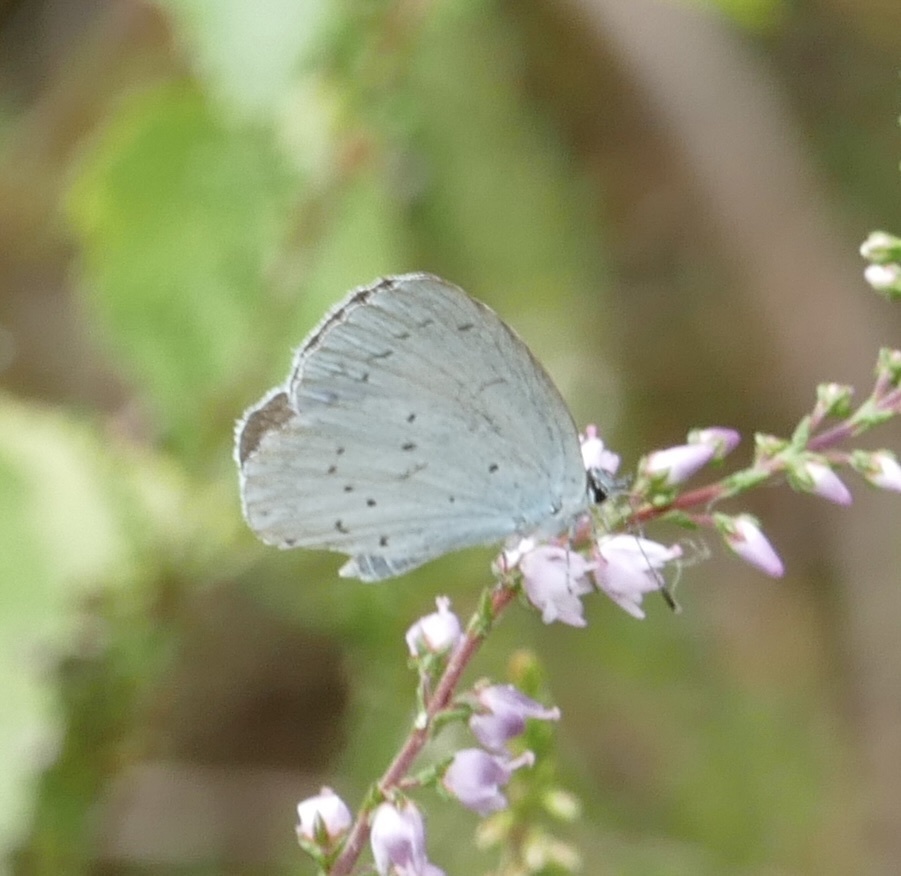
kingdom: Animalia
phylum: Arthropoda
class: Insecta
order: Lepidoptera
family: Lycaenidae
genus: Celastrina
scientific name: Celastrina argiolus
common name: Holly blue
